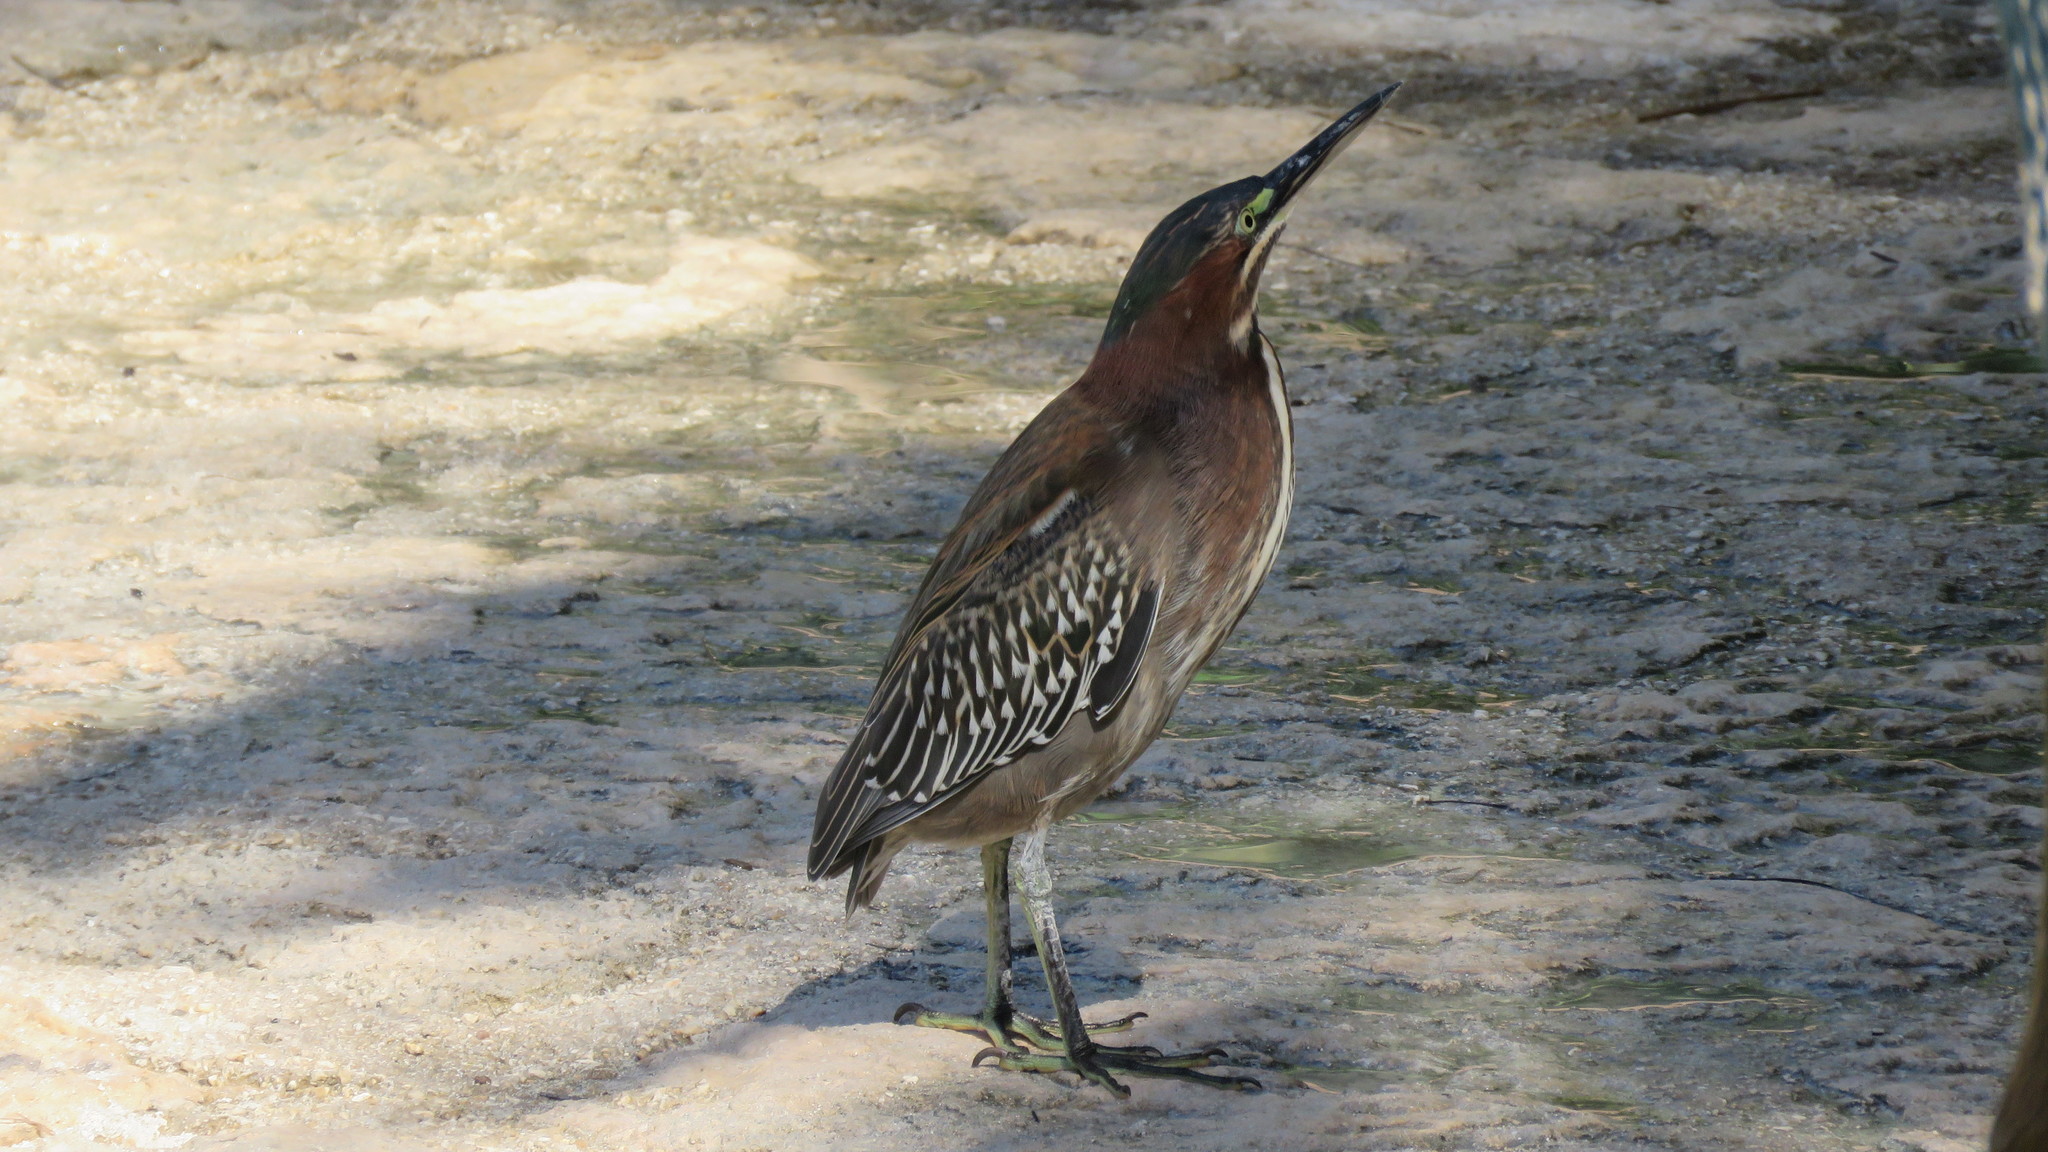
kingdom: Animalia
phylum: Chordata
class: Aves
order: Pelecaniformes
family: Ardeidae
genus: Butorides
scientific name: Butorides virescens
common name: Green heron
